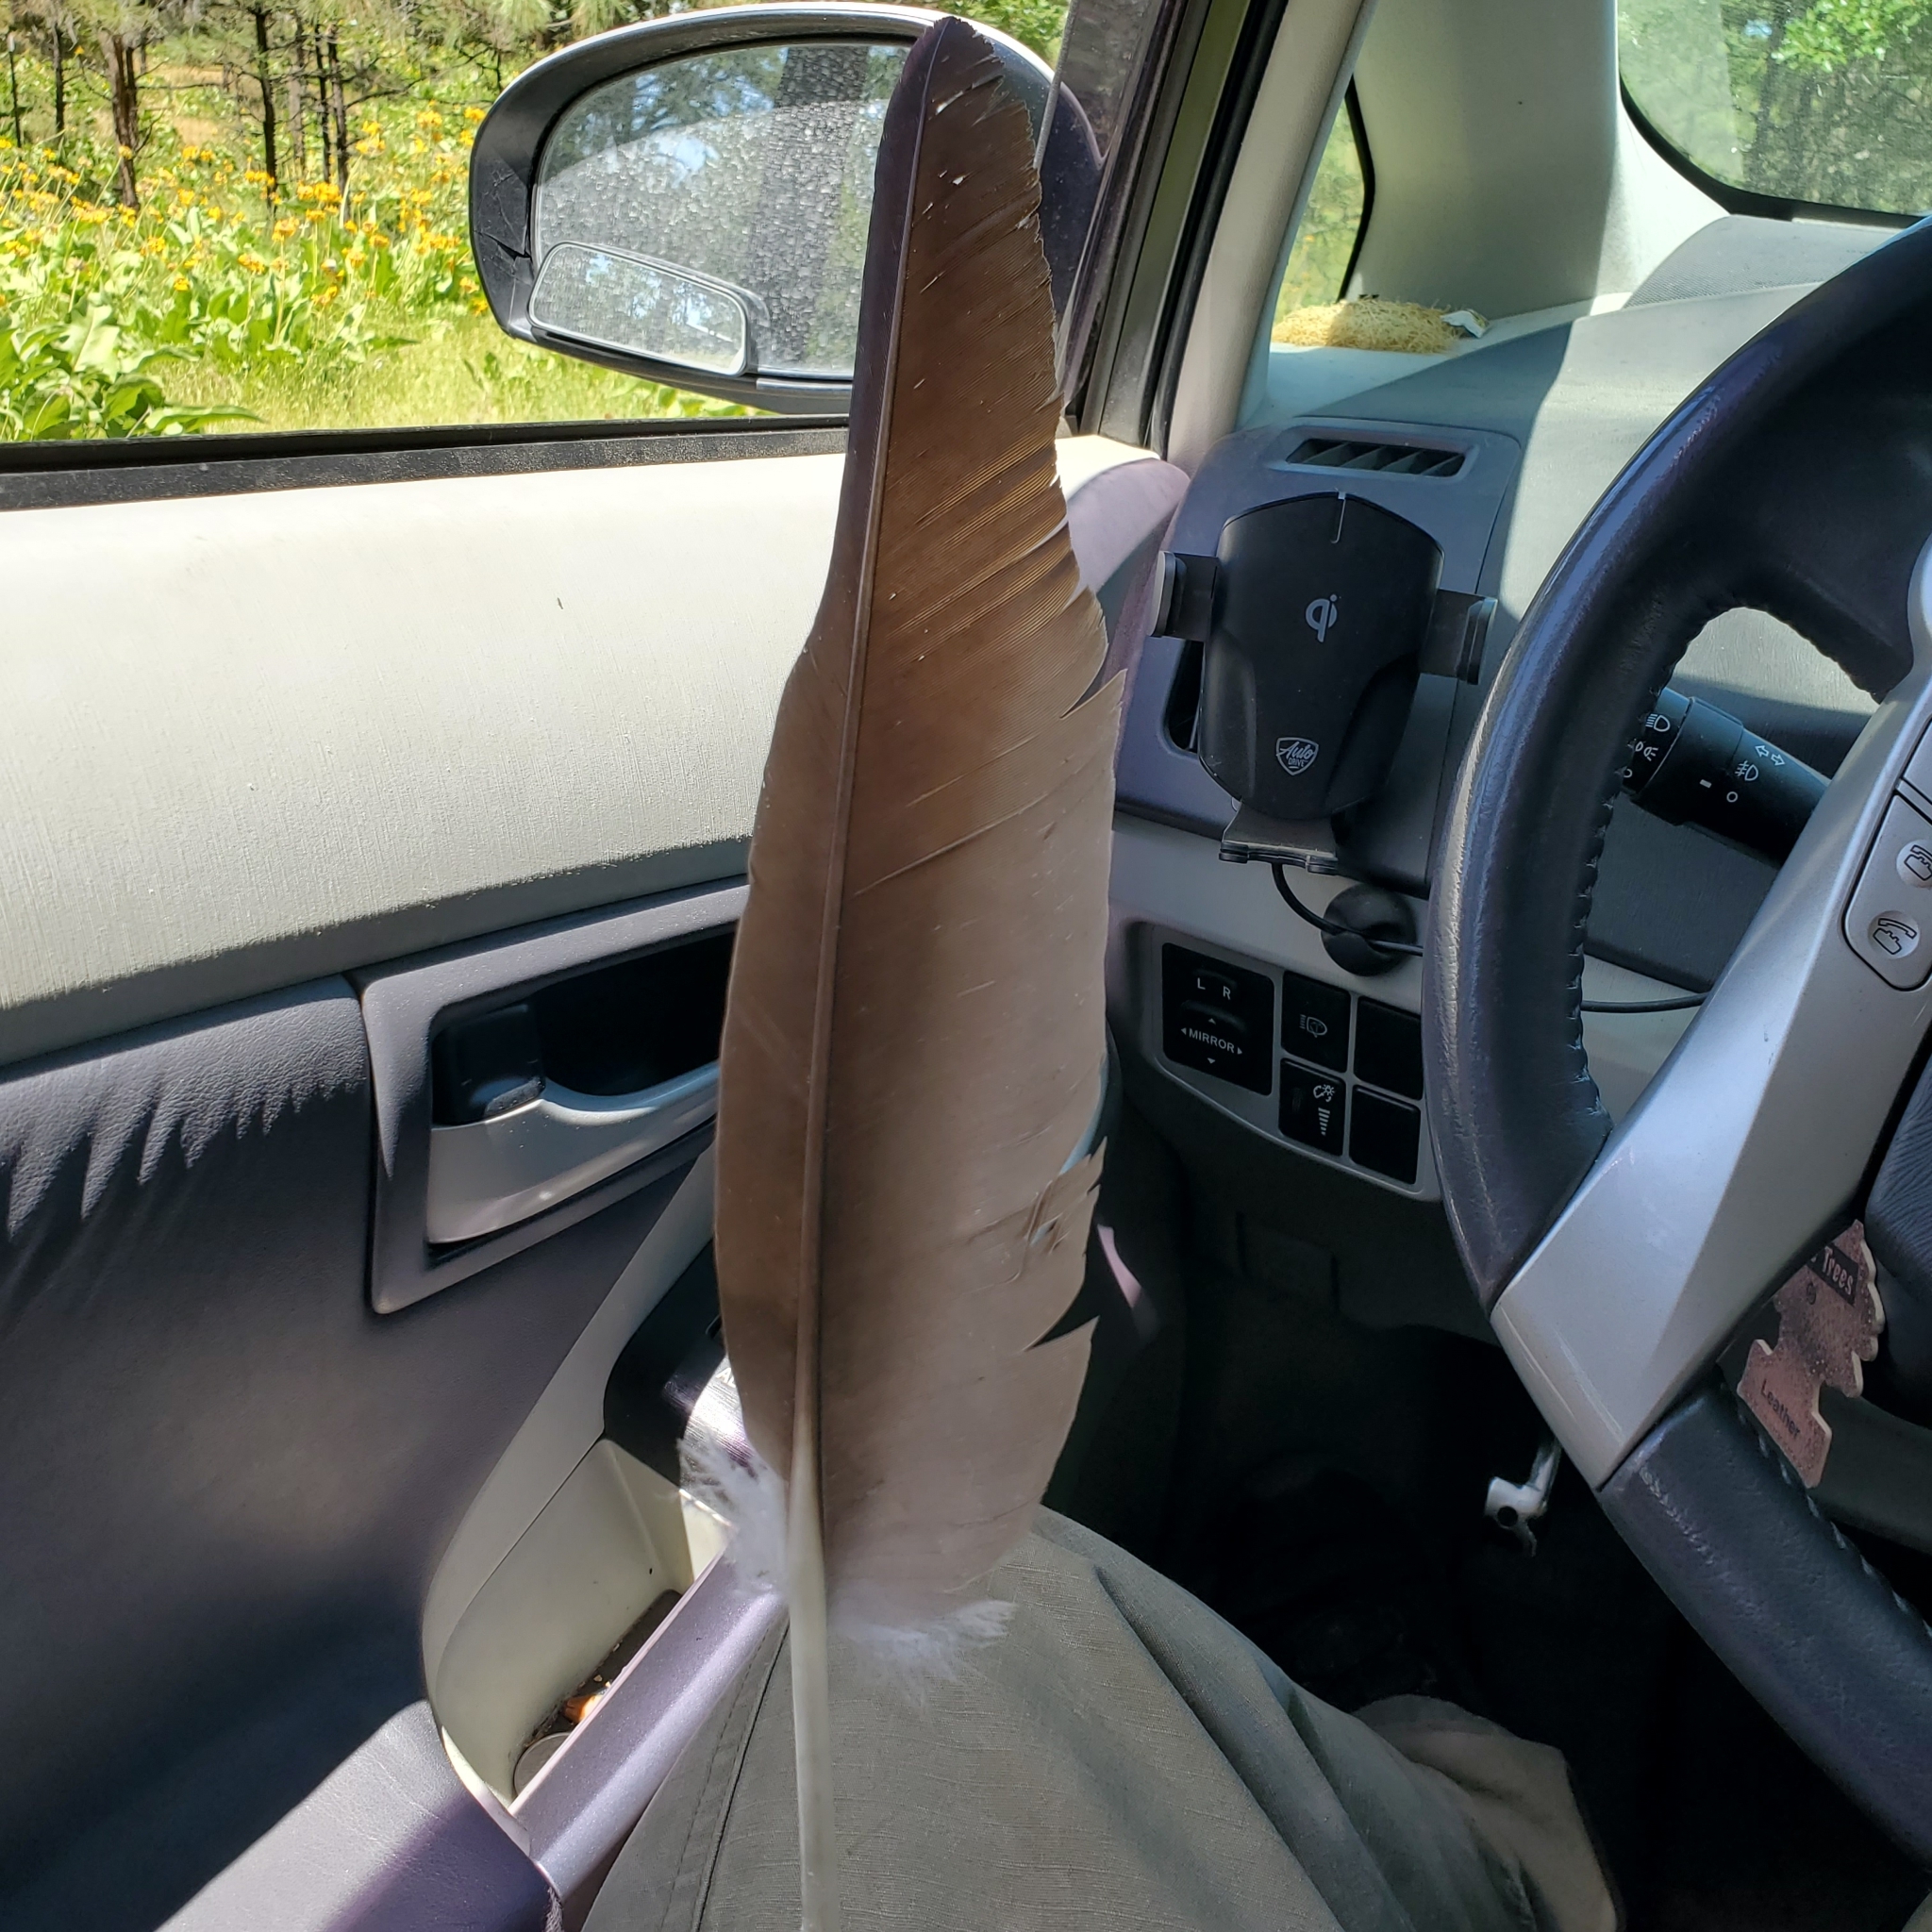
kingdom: Animalia
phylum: Chordata
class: Aves
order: Accipitriformes
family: Cathartidae
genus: Cathartes
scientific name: Cathartes aura
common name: Turkey vulture
